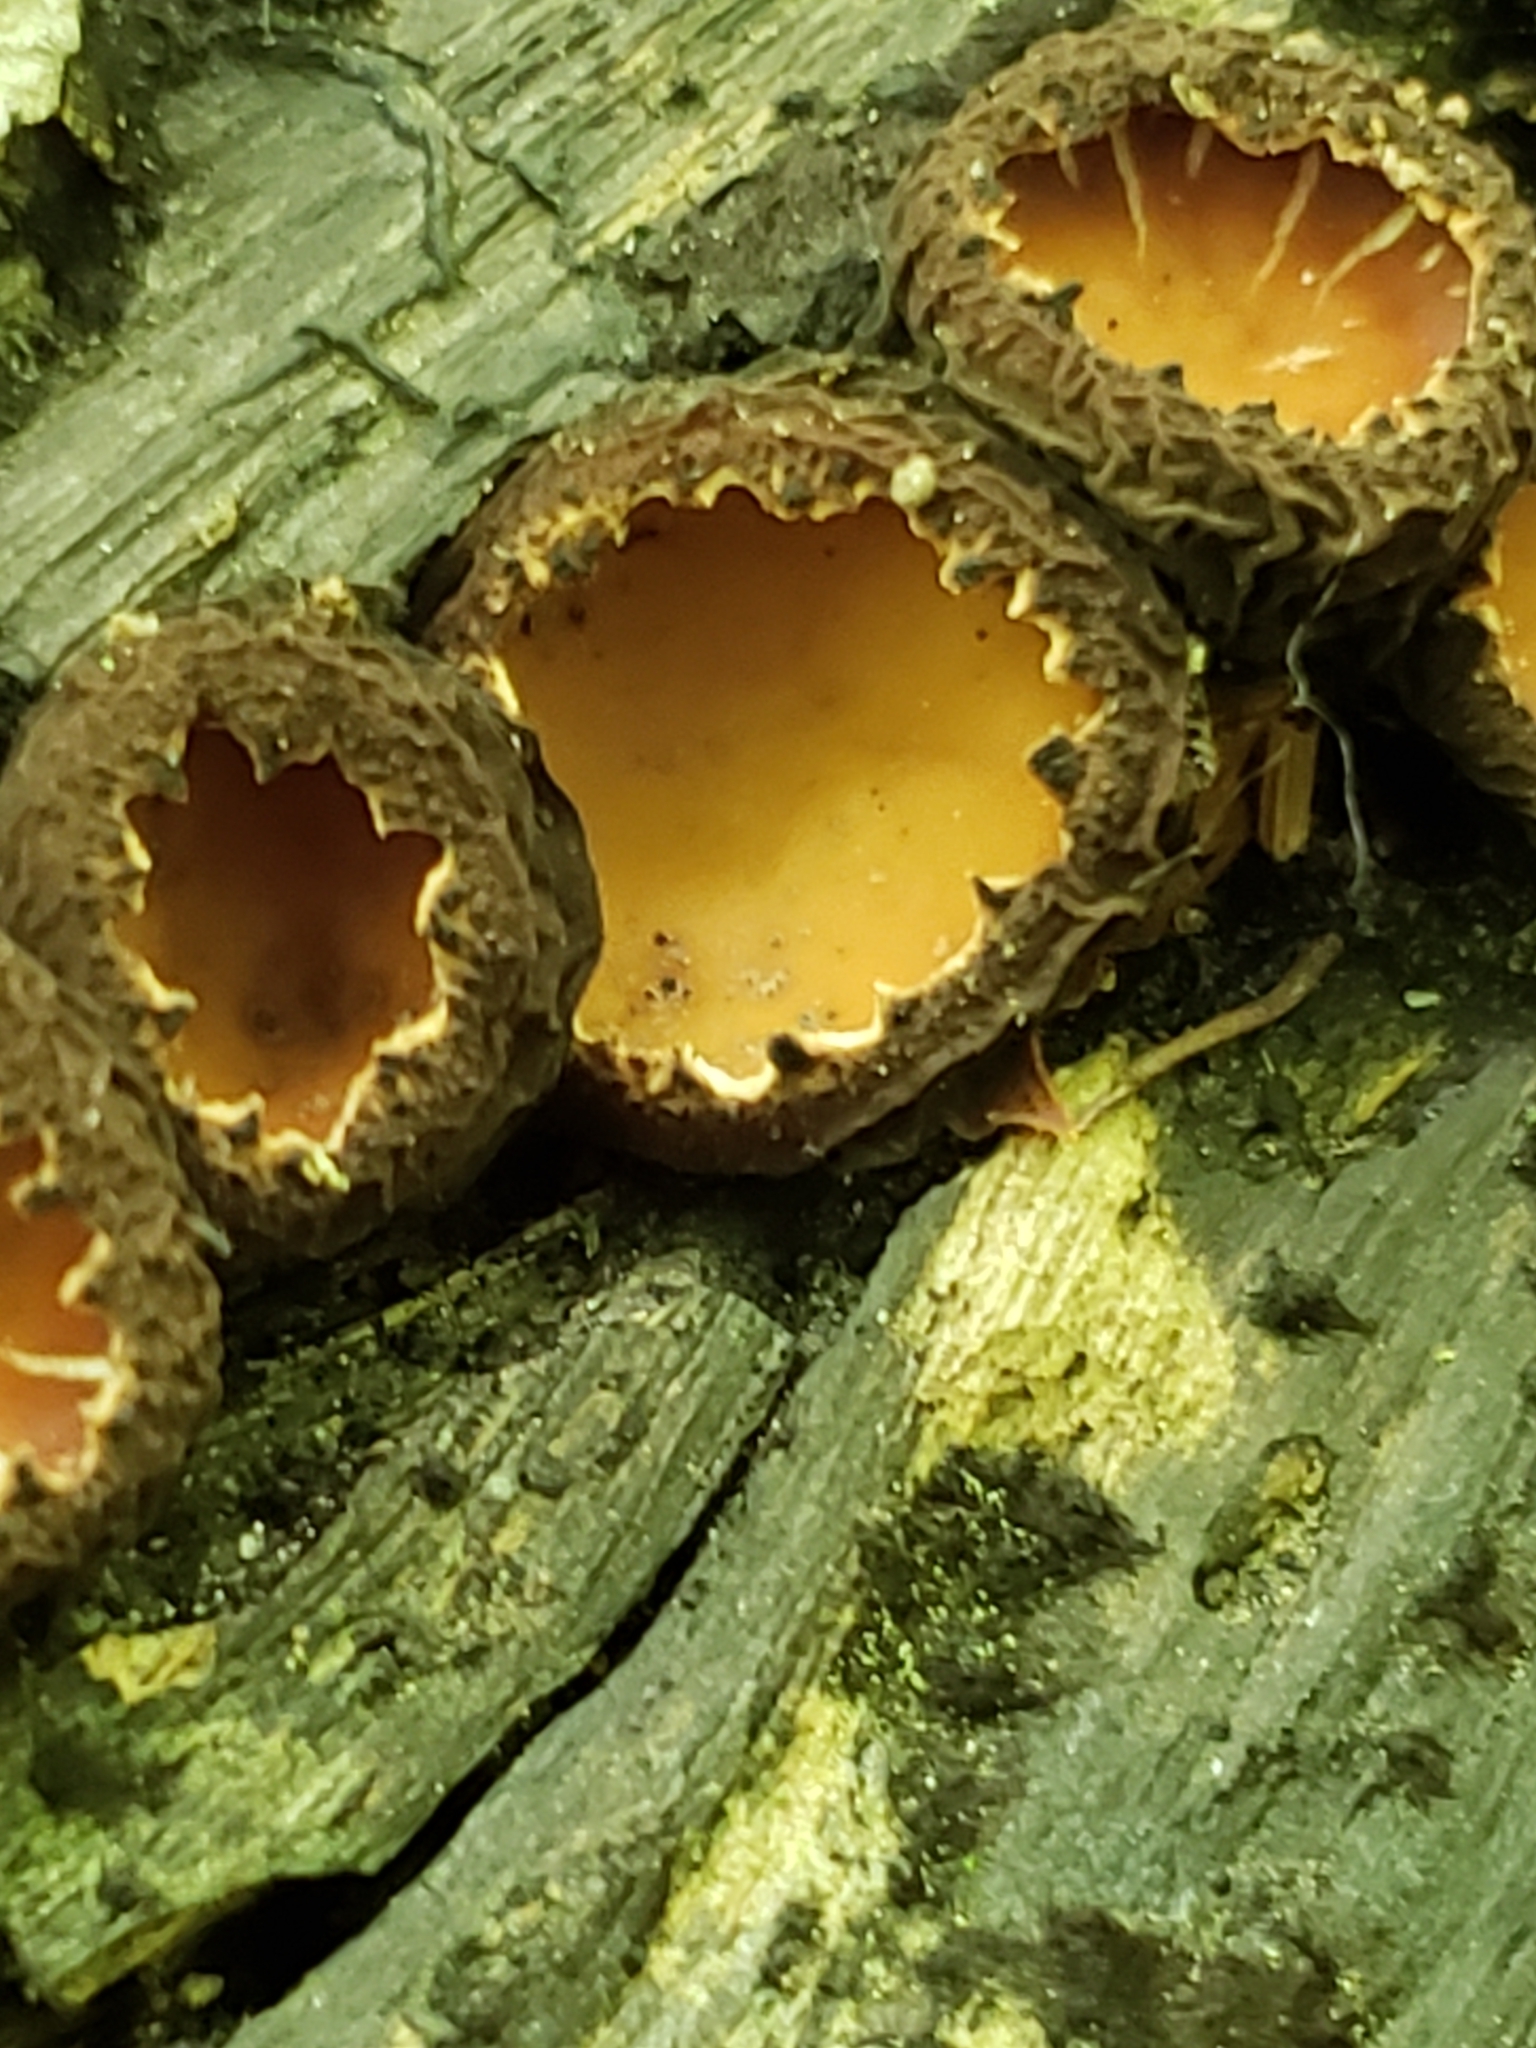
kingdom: Fungi
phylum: Ascomycota
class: Pezizomycetes
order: Pezizales
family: Sarcosomataceae
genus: Galiella
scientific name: Galiella rufa
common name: Hairy rubber cup
